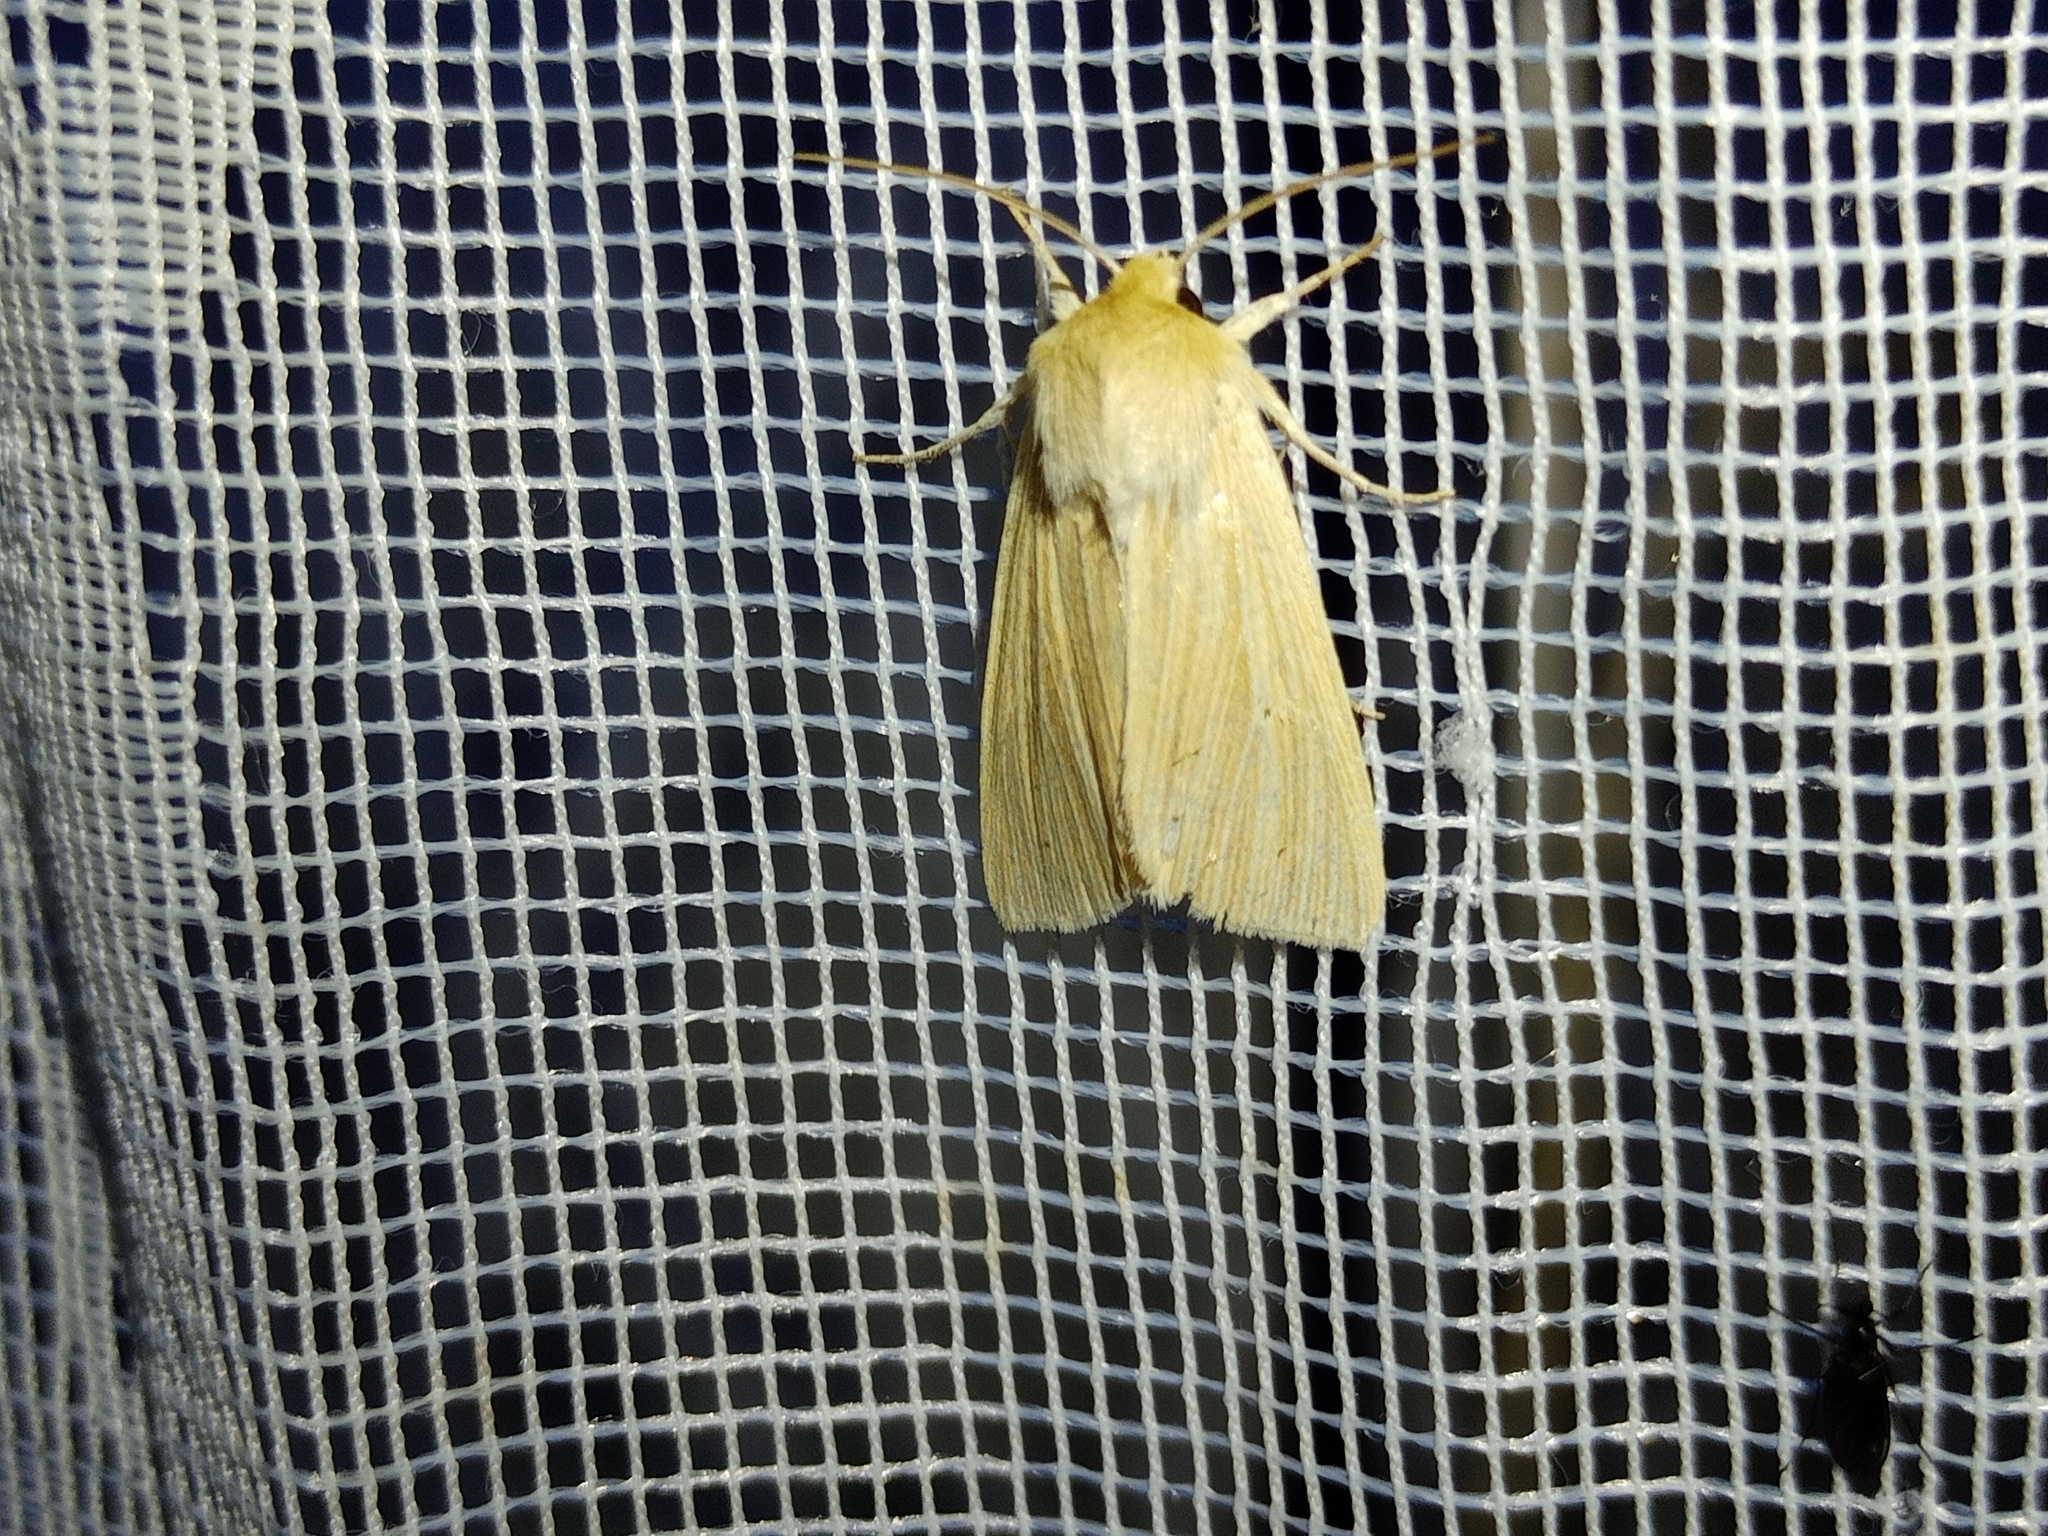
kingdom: Animalia
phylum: Arthropoda
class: Insecta
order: Lepidoptera
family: Noctuidae
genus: Mythimna
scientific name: Mythimna pallens
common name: Common wainscot
